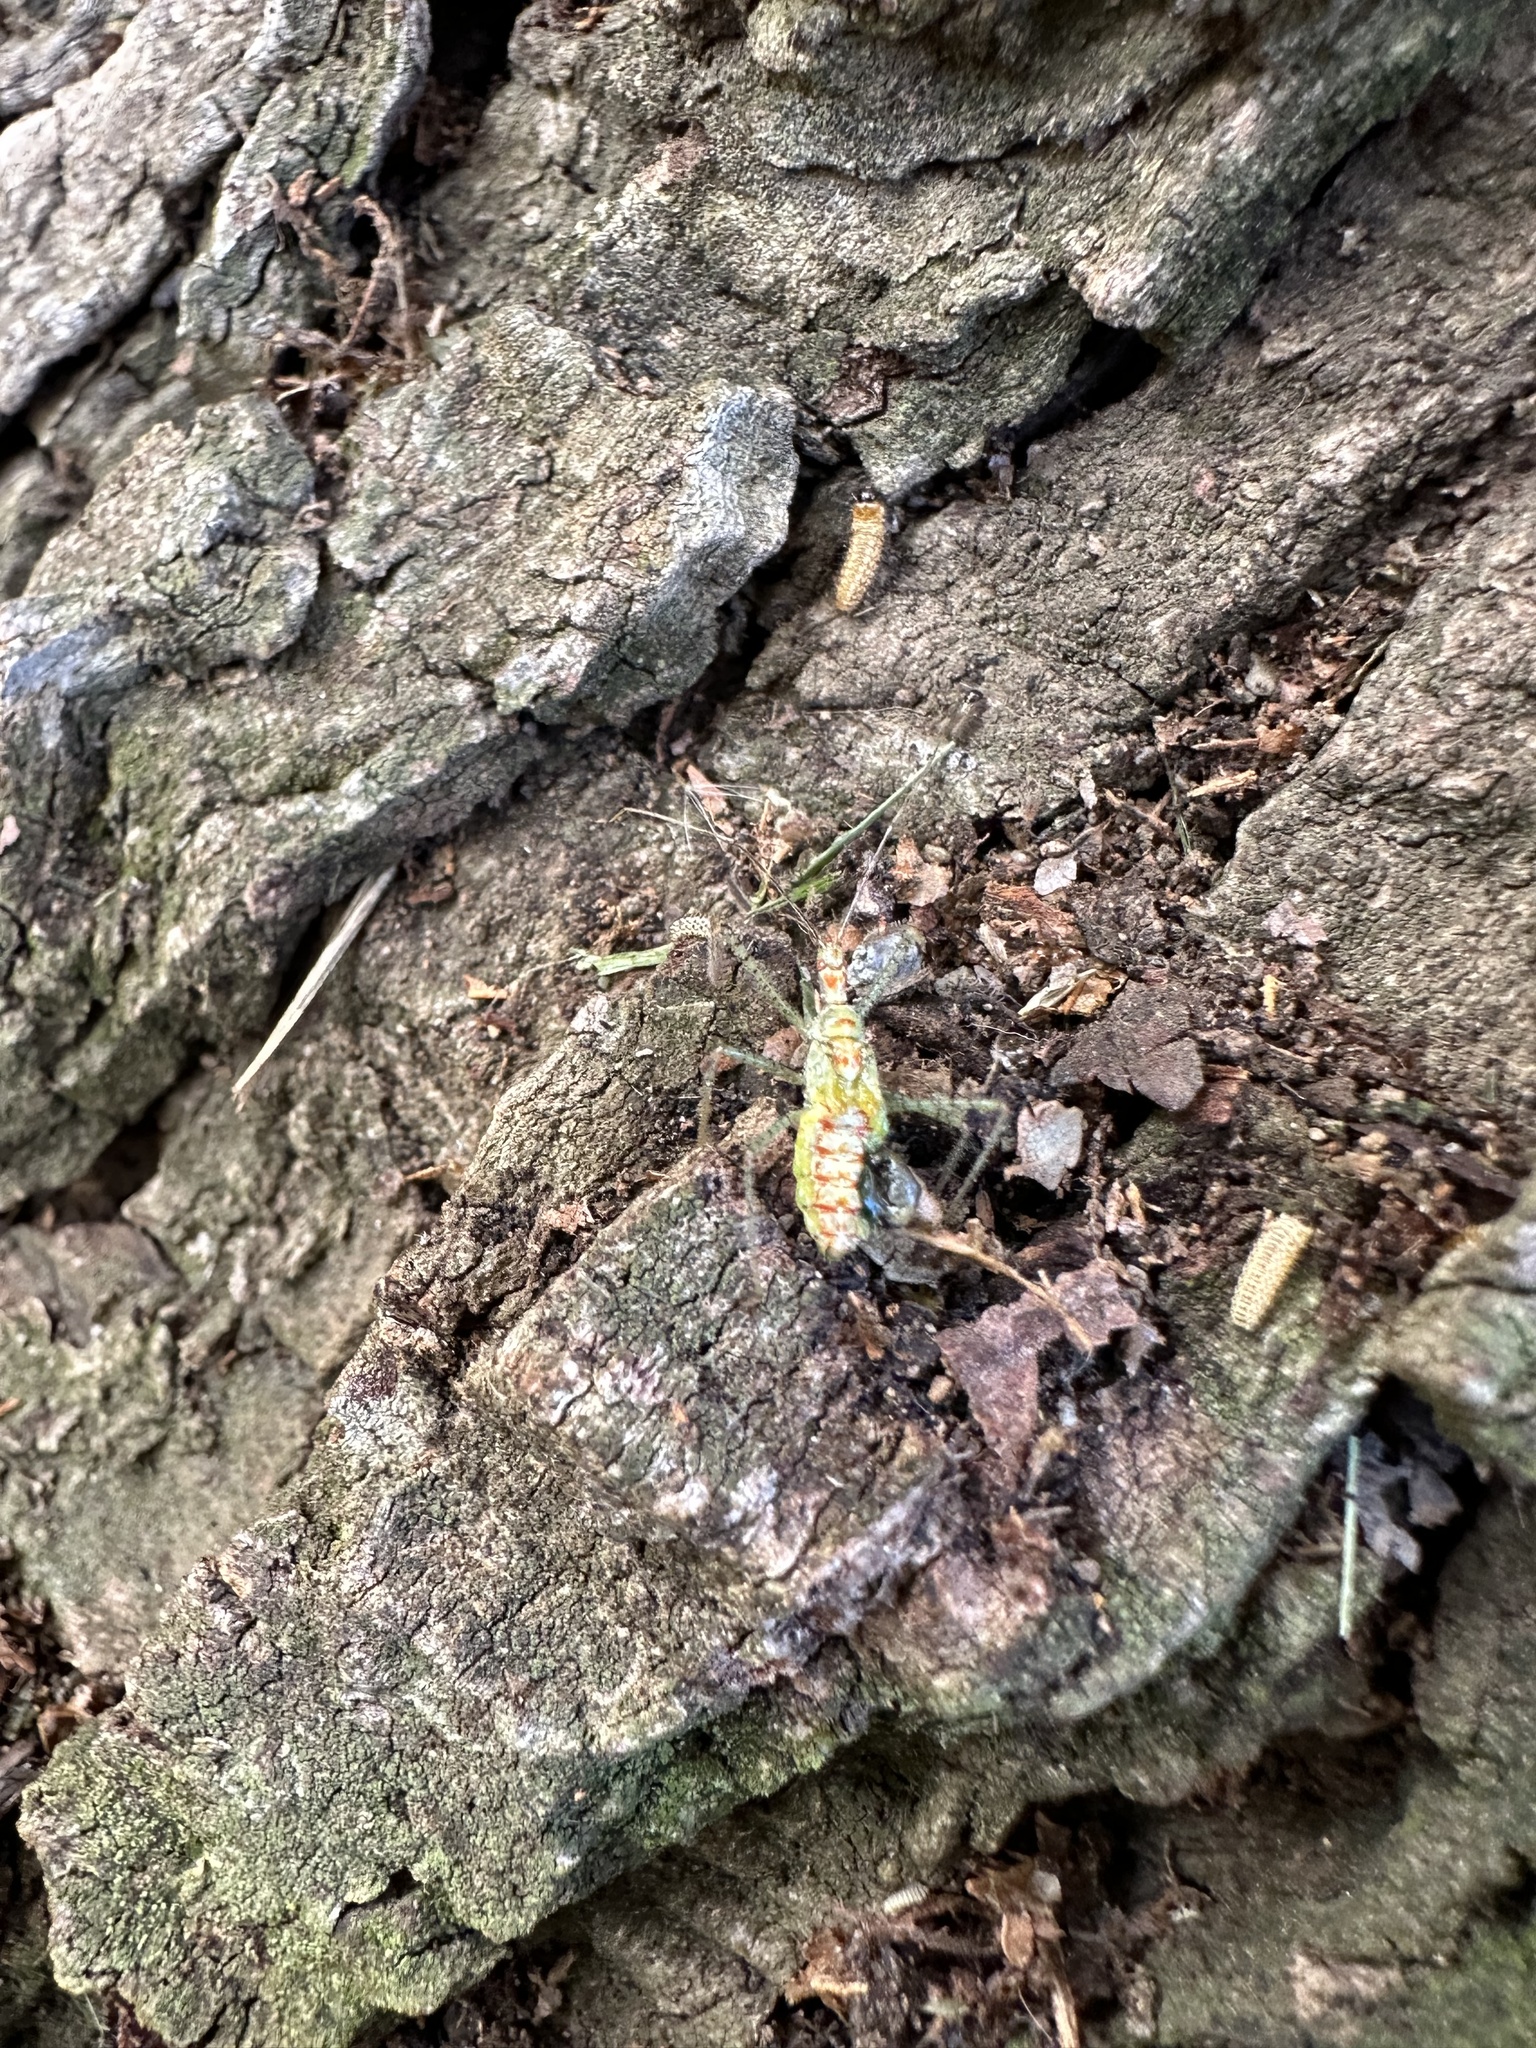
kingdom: Animalia
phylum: Arthropoda
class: Insecta
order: Hemiptera
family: Reduviidae
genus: Zelus
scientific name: Zelus renardii
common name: Assassin bug
